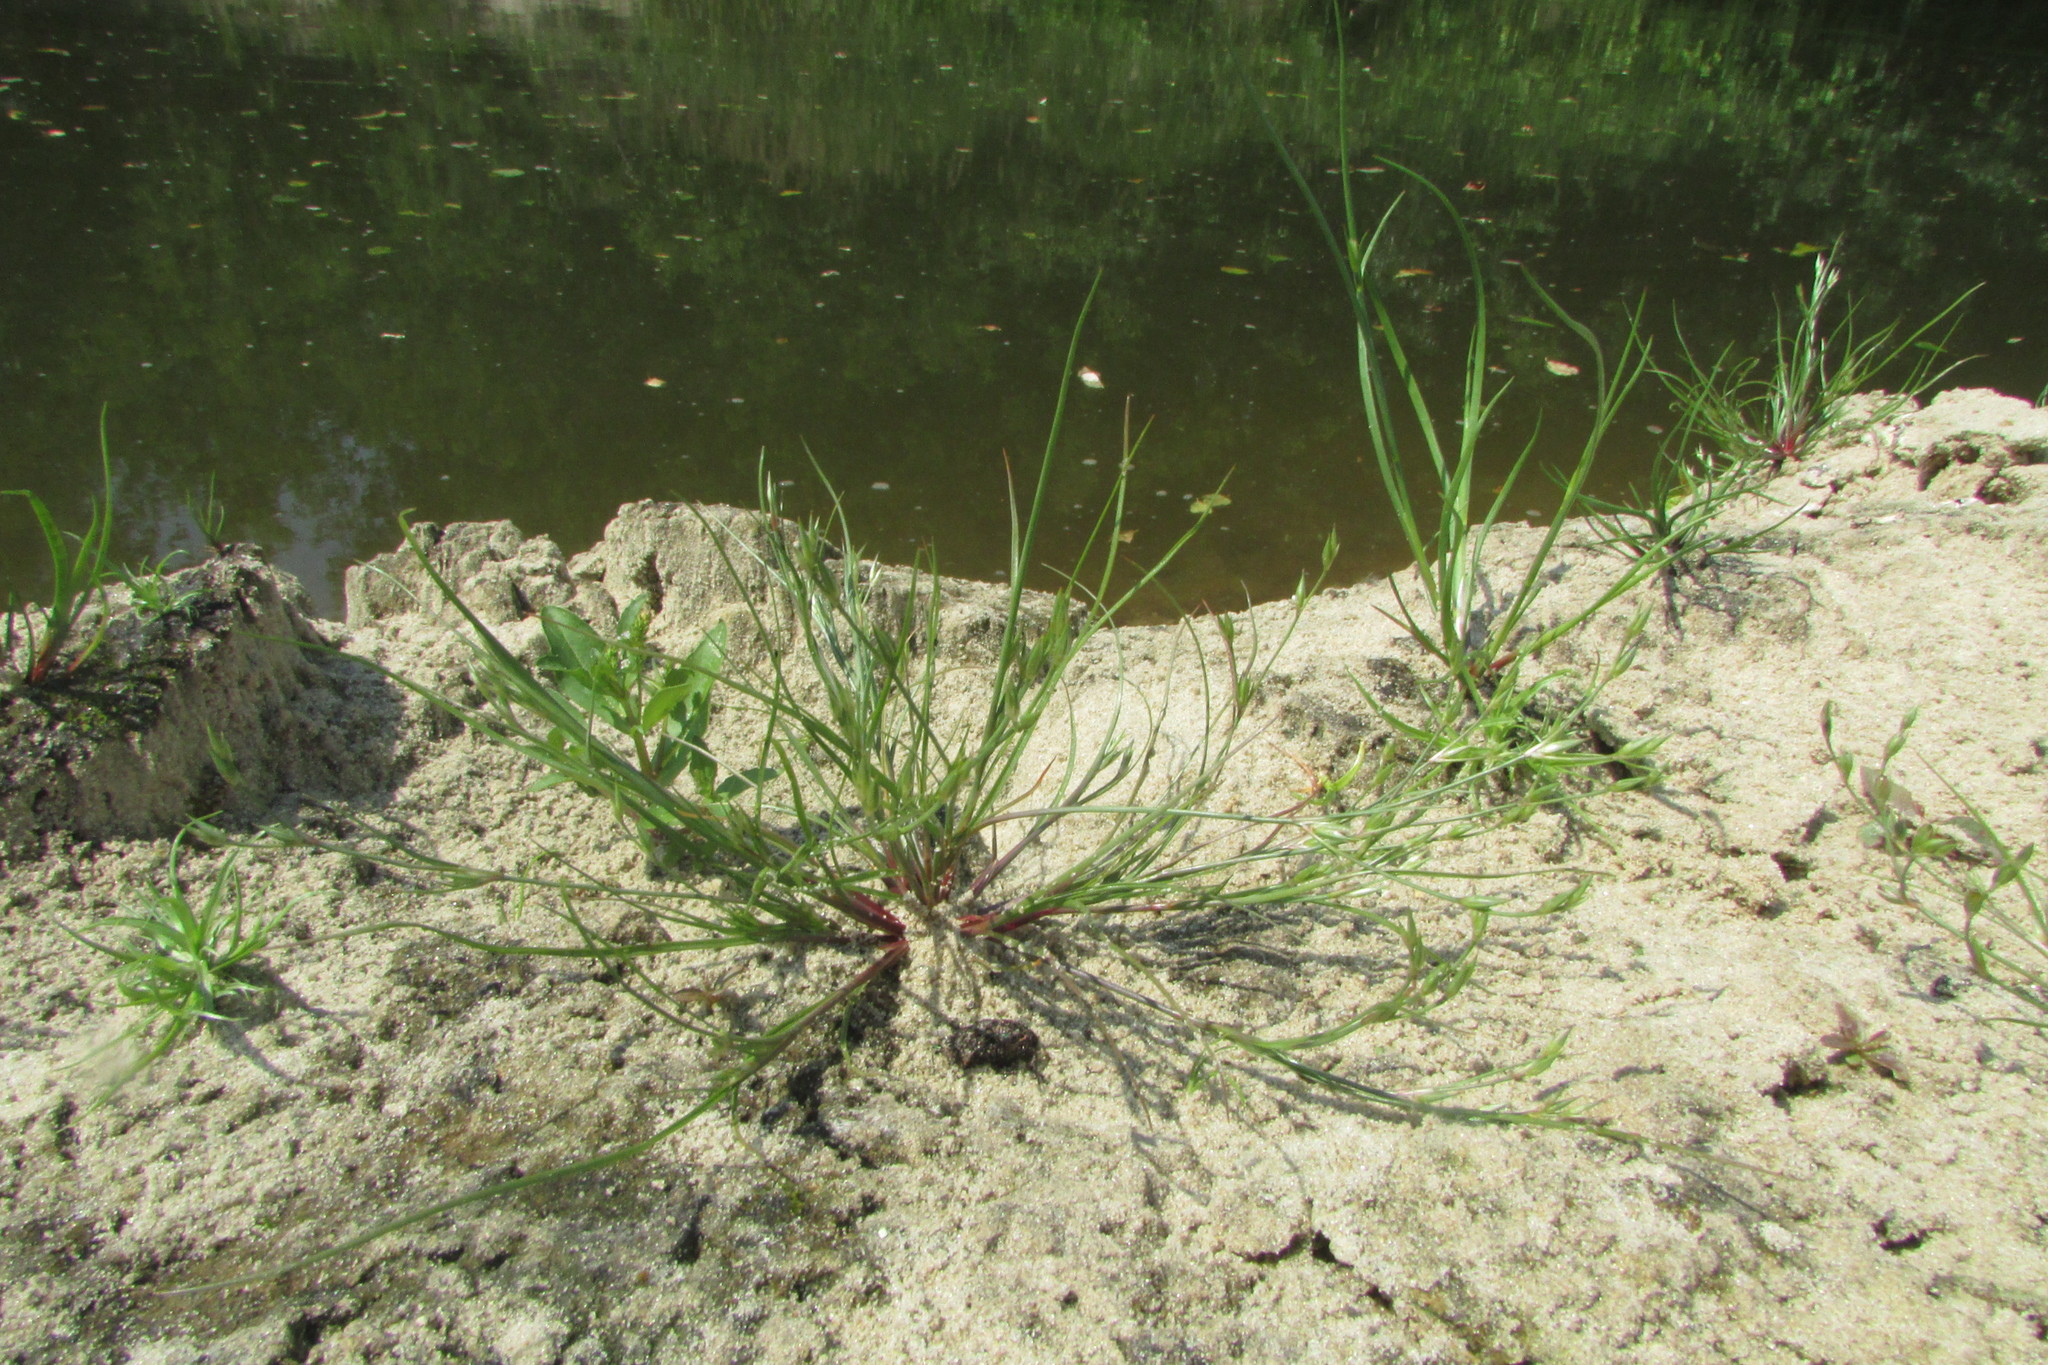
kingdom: Plantae
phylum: Tracheophyta
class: Liliopsida
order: Poales
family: Juncaceae
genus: Juncus
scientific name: Juncus bufonius
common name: Toad rush
